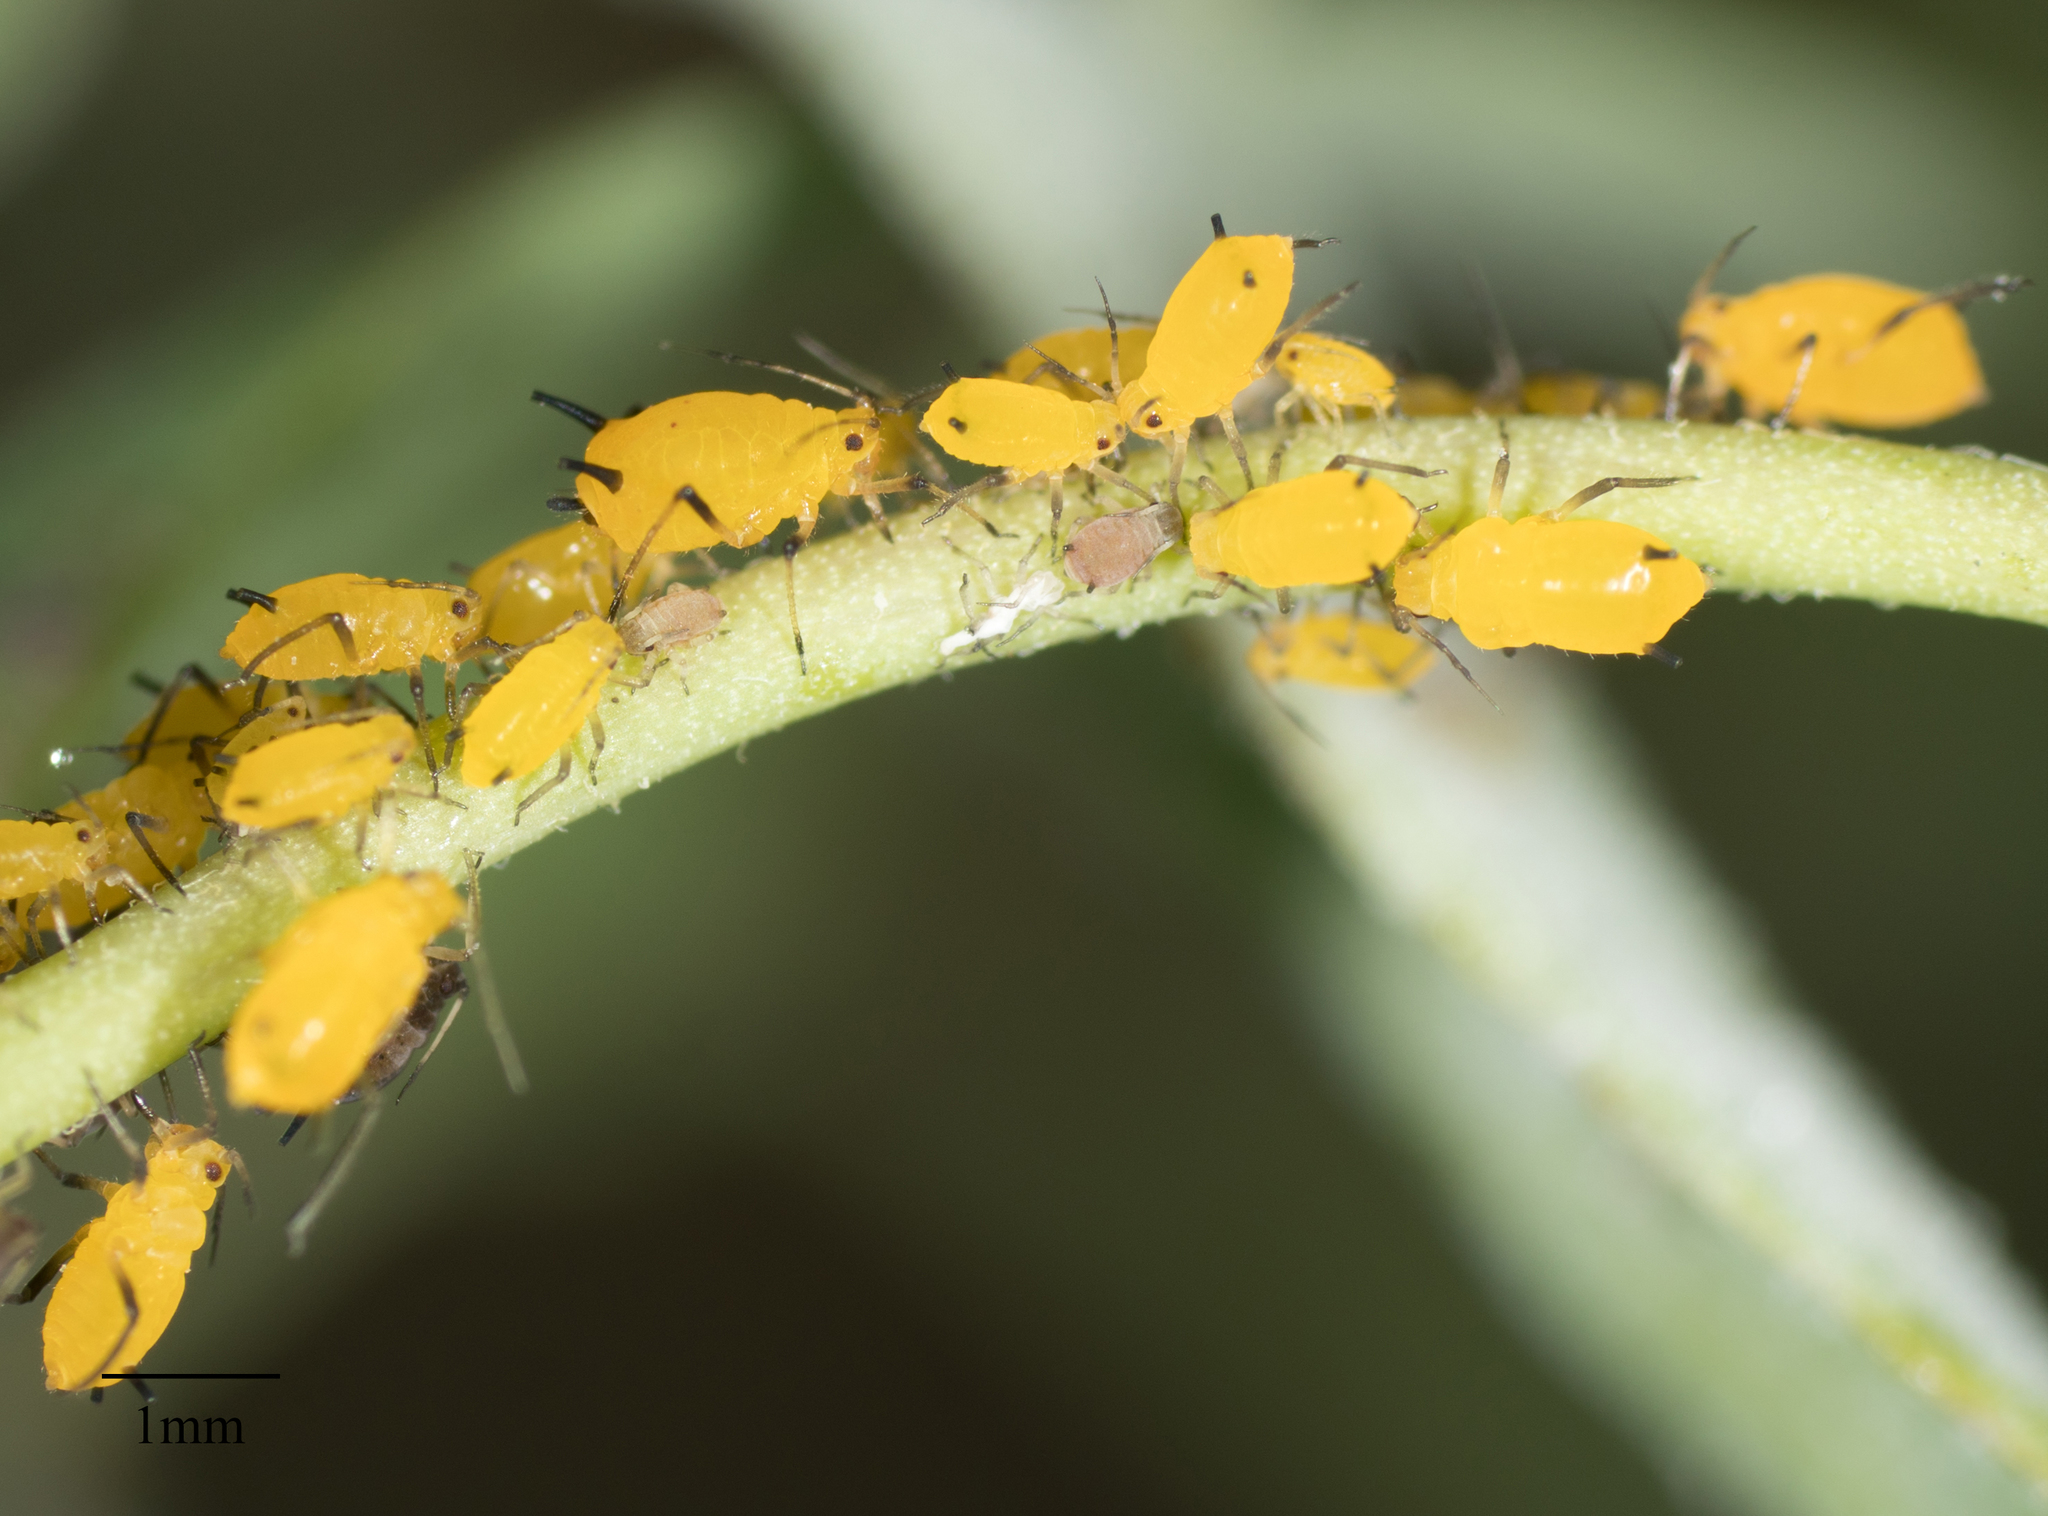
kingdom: Animalia
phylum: Arthropoda
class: Insecta
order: Hemiptera
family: Aphididae
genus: Aphis
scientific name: Aphis nerii
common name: Oleander aphid
